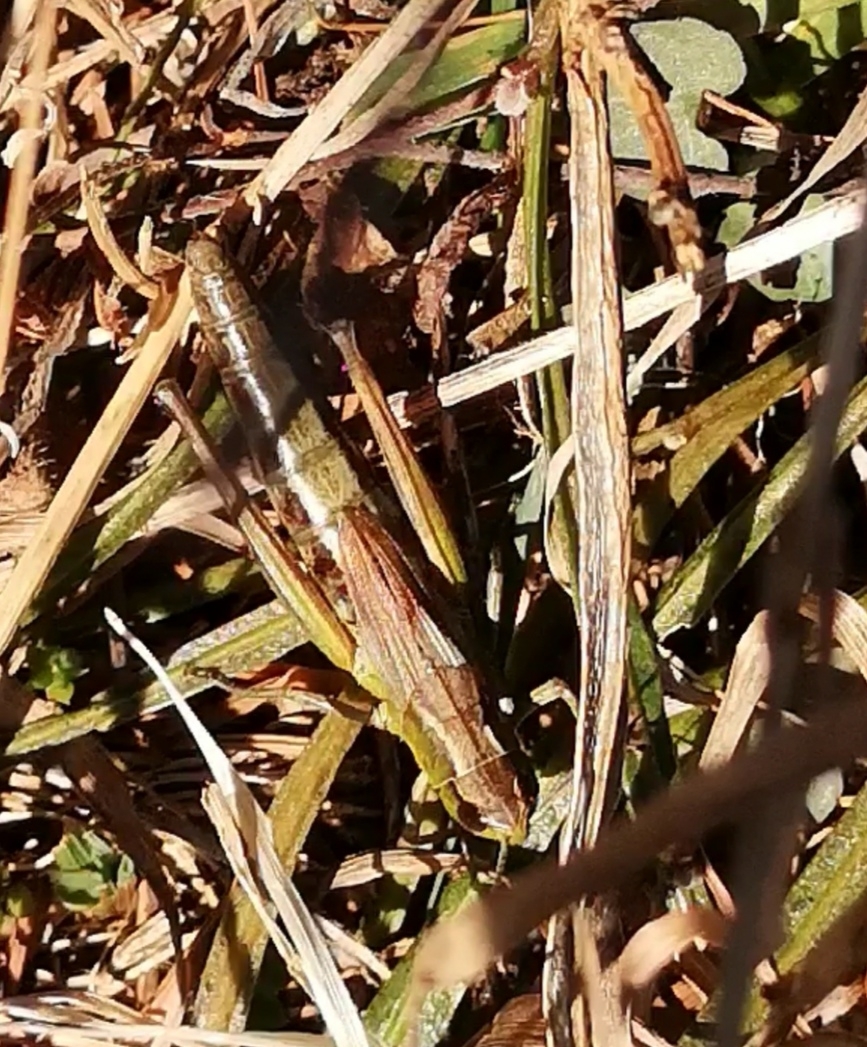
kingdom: Animalia
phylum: Arthropoda
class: Insecta
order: Orthoptera
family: Acrididae
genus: Pseudochorthippus
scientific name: Pseudochorthippus parallelus
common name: Meadow grasshopper
